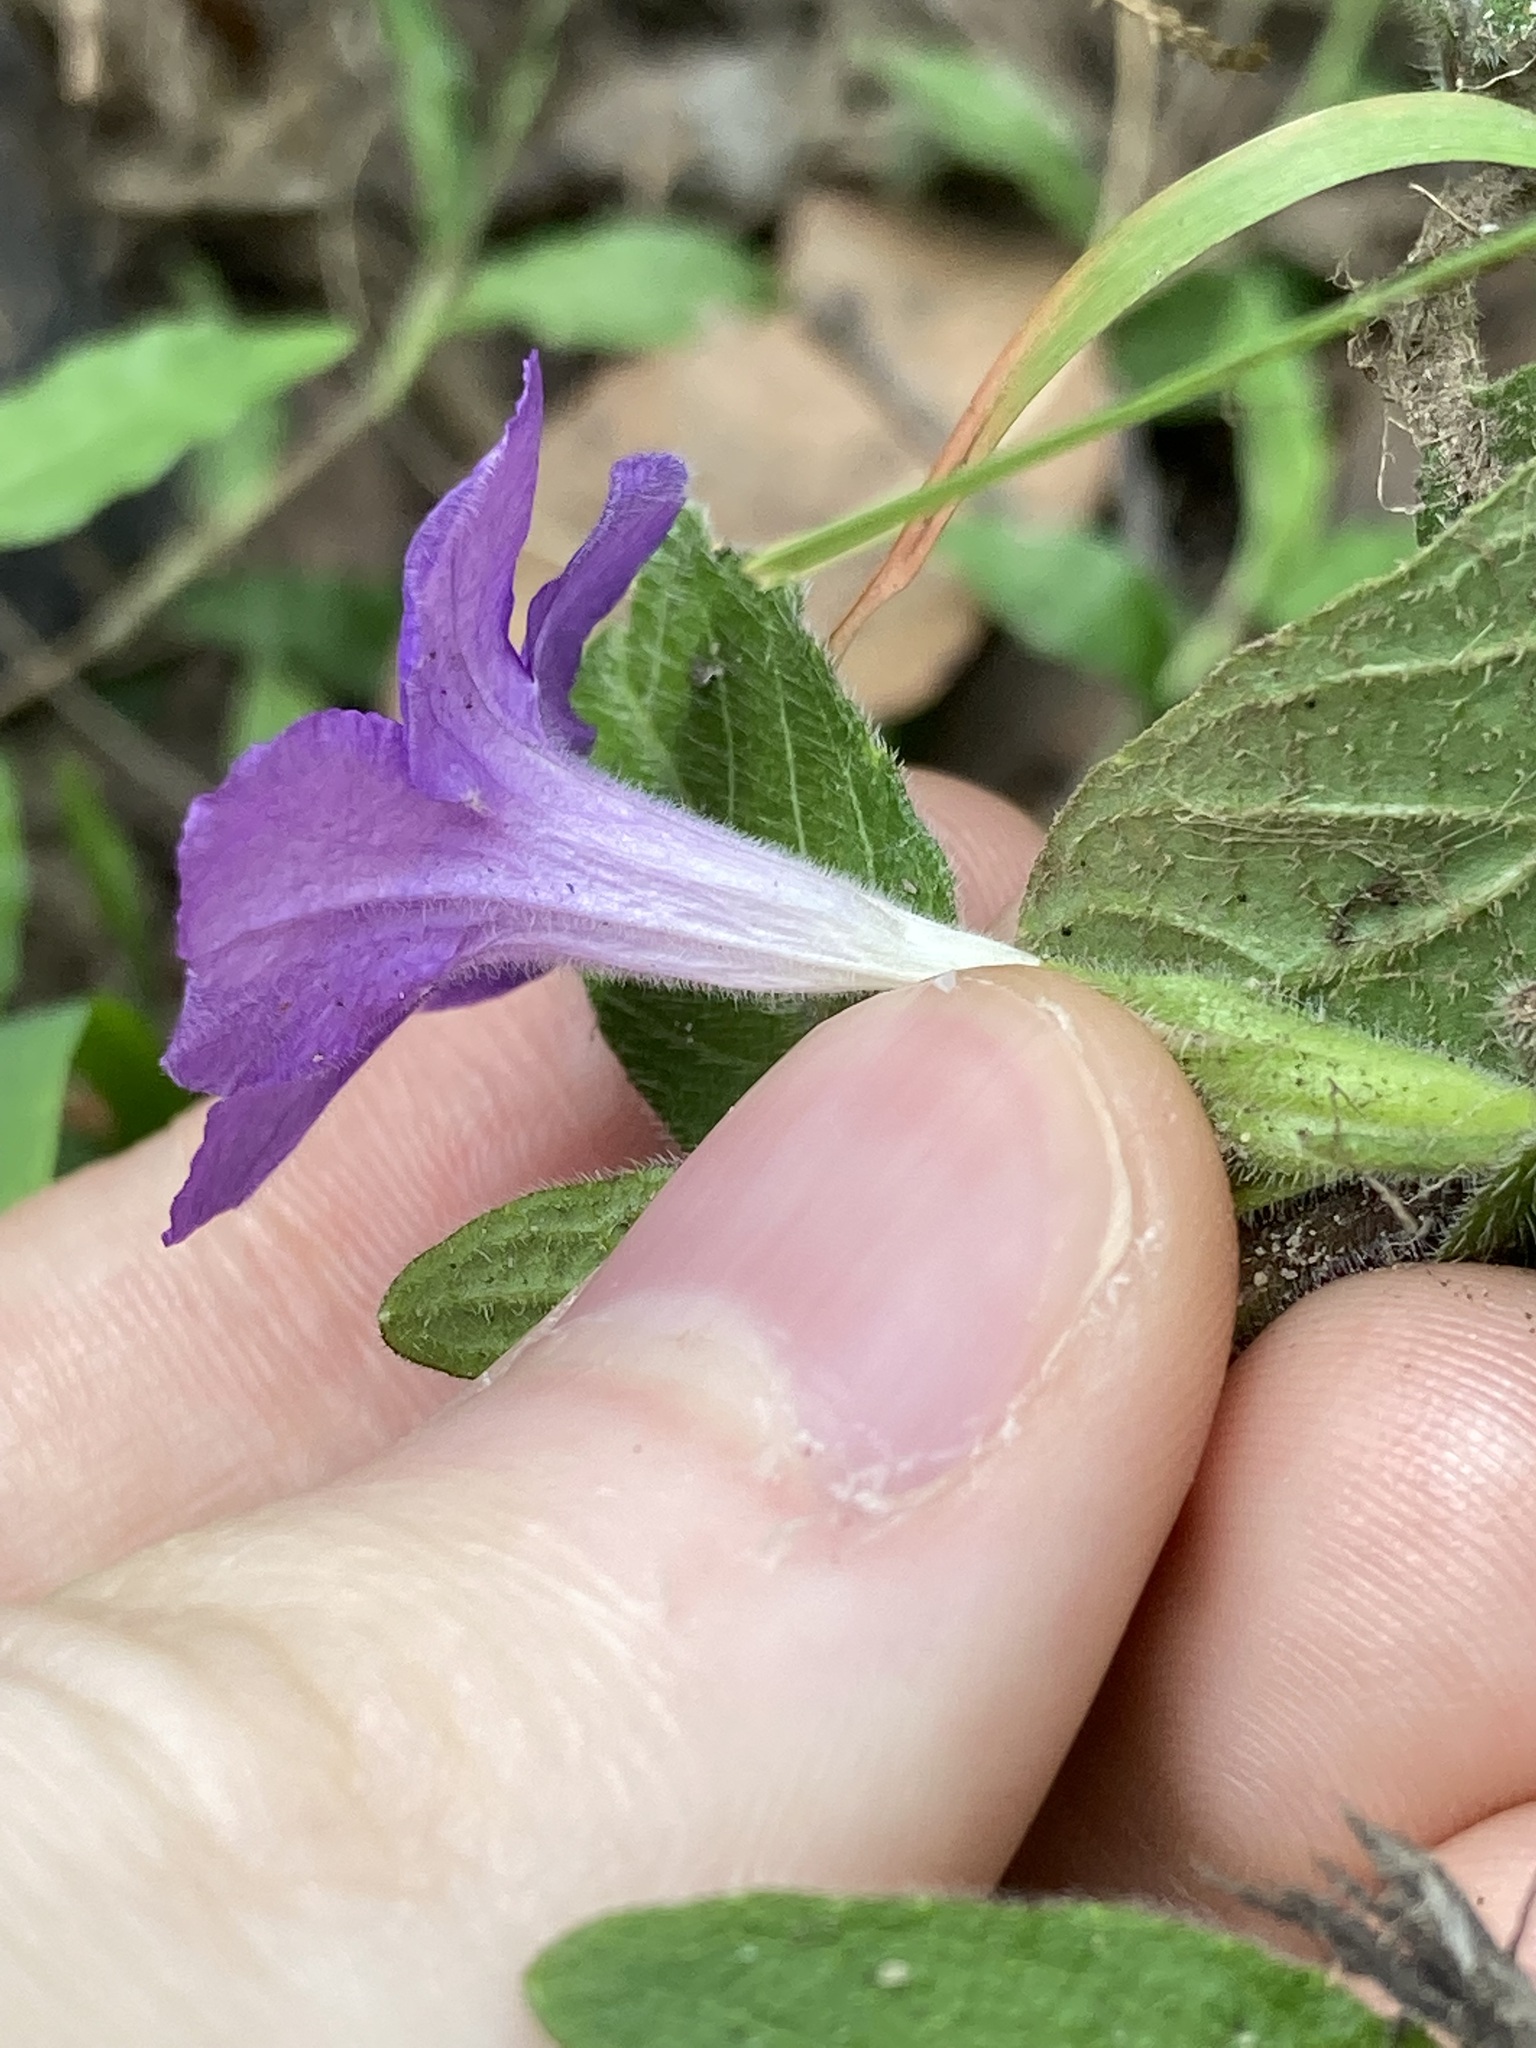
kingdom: Plantae
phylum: Tracheophyta
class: Magnoliopsida
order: Lamiales
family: Acanthaceae
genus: Ruellia
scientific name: Ruellia squarrosa
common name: Water bluebell
